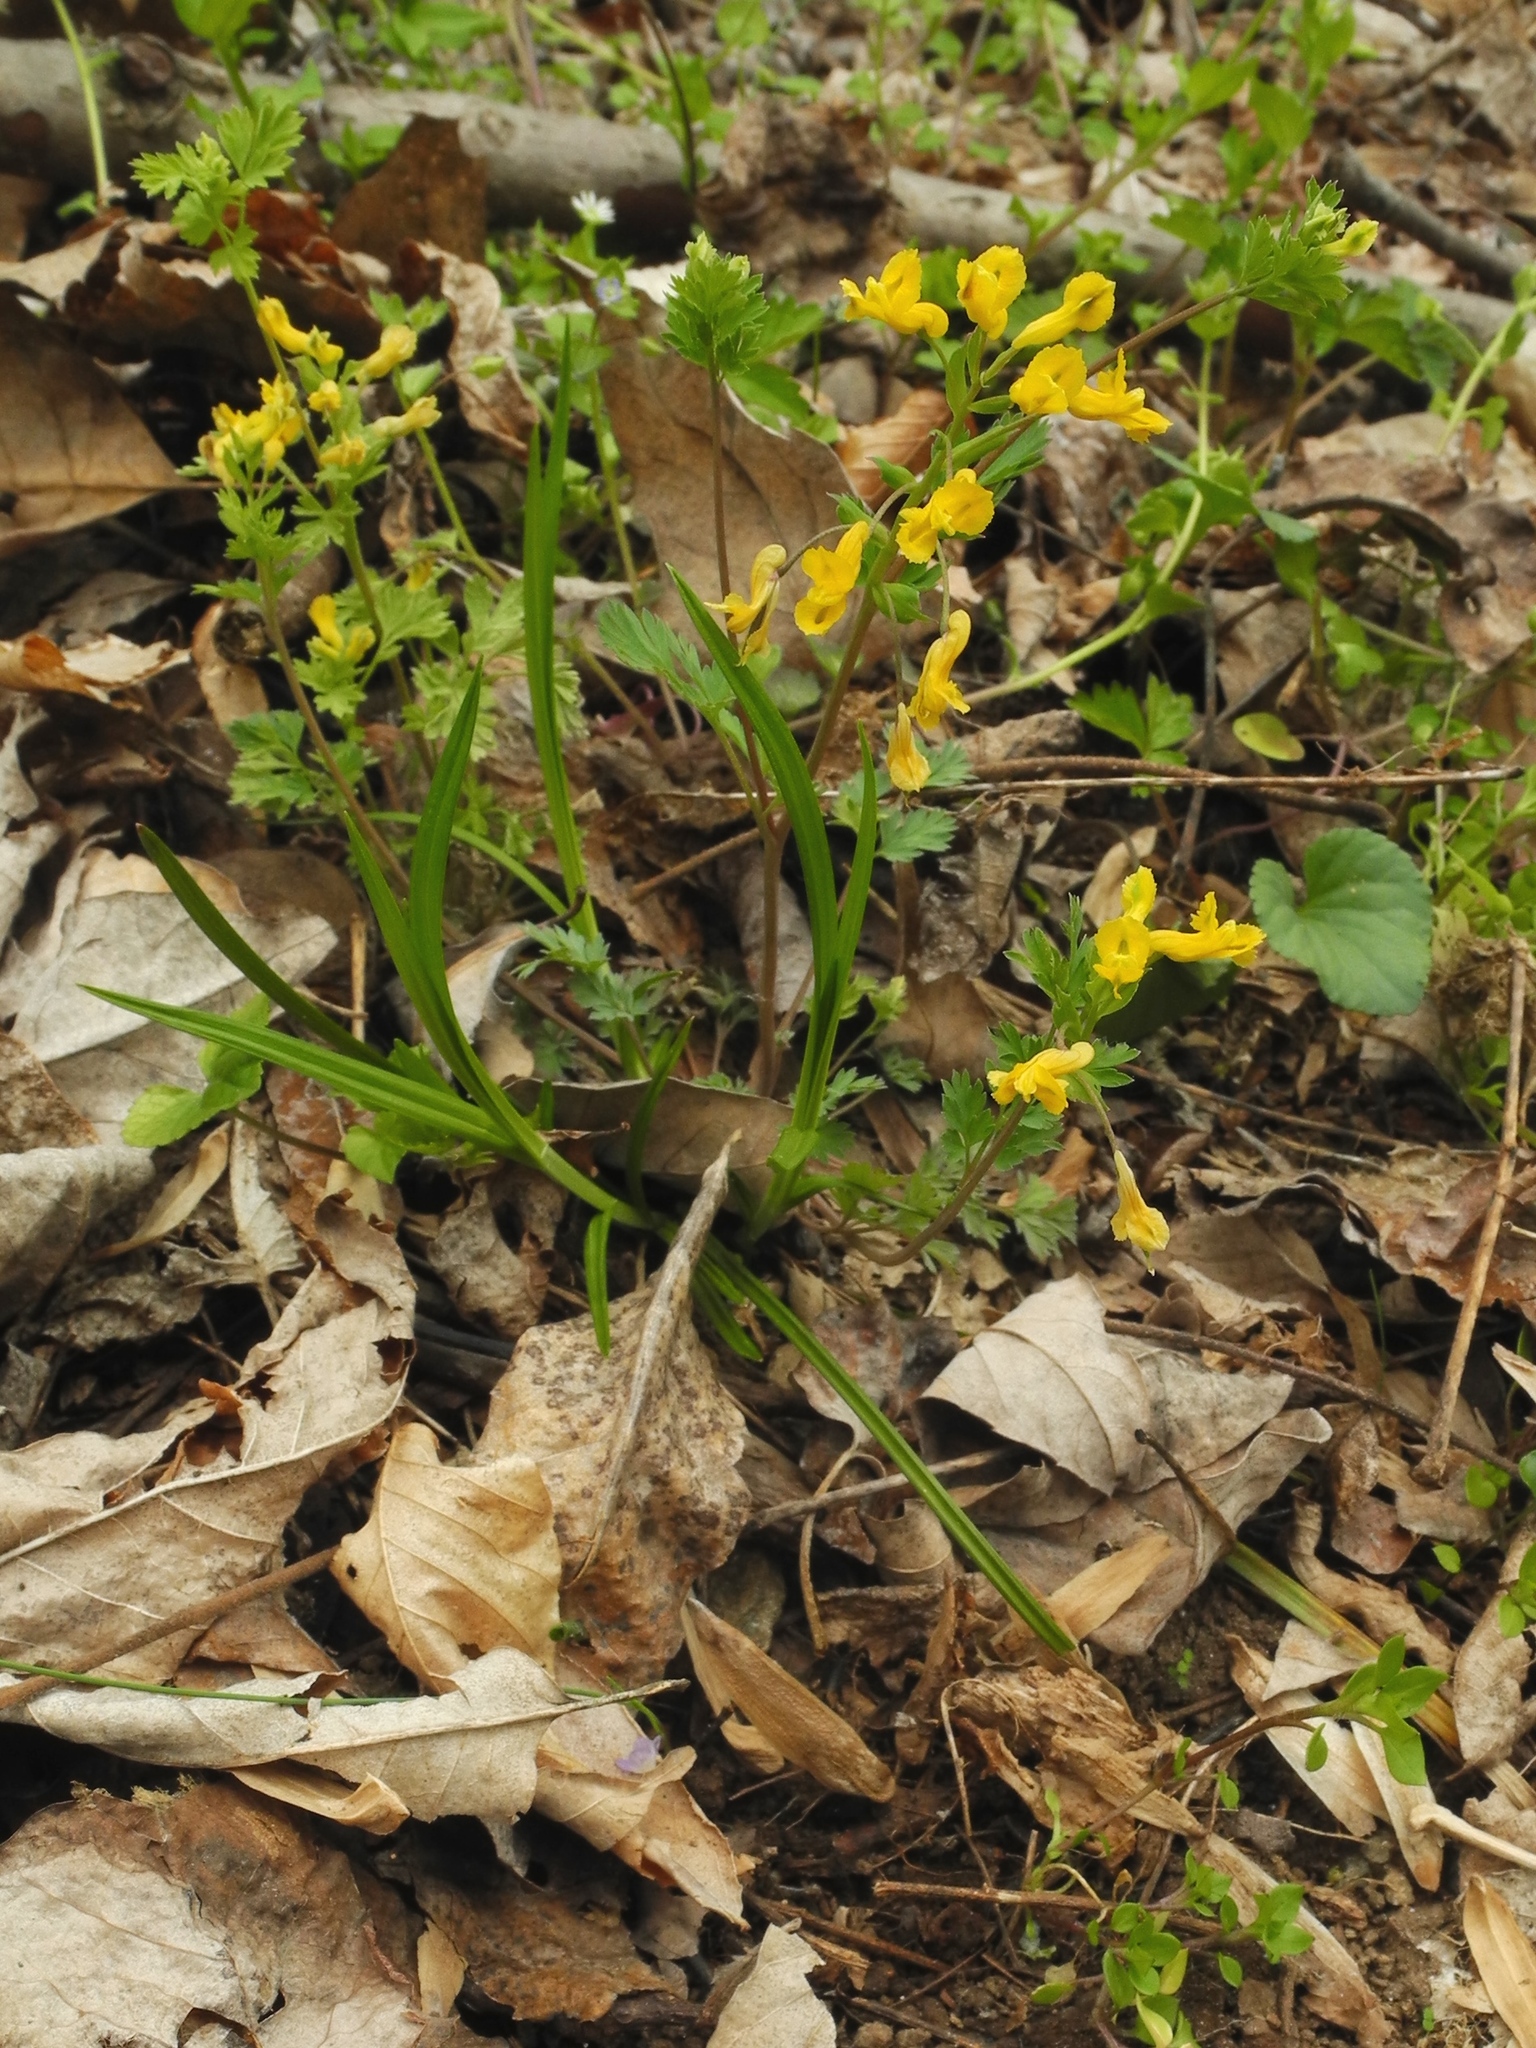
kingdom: Plantae
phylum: Tracheophyta
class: Magnoliopsida
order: Ranunculales
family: Papaveraceae
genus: Corydalis
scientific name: Corydalis flavula
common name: Yellow corydalis
